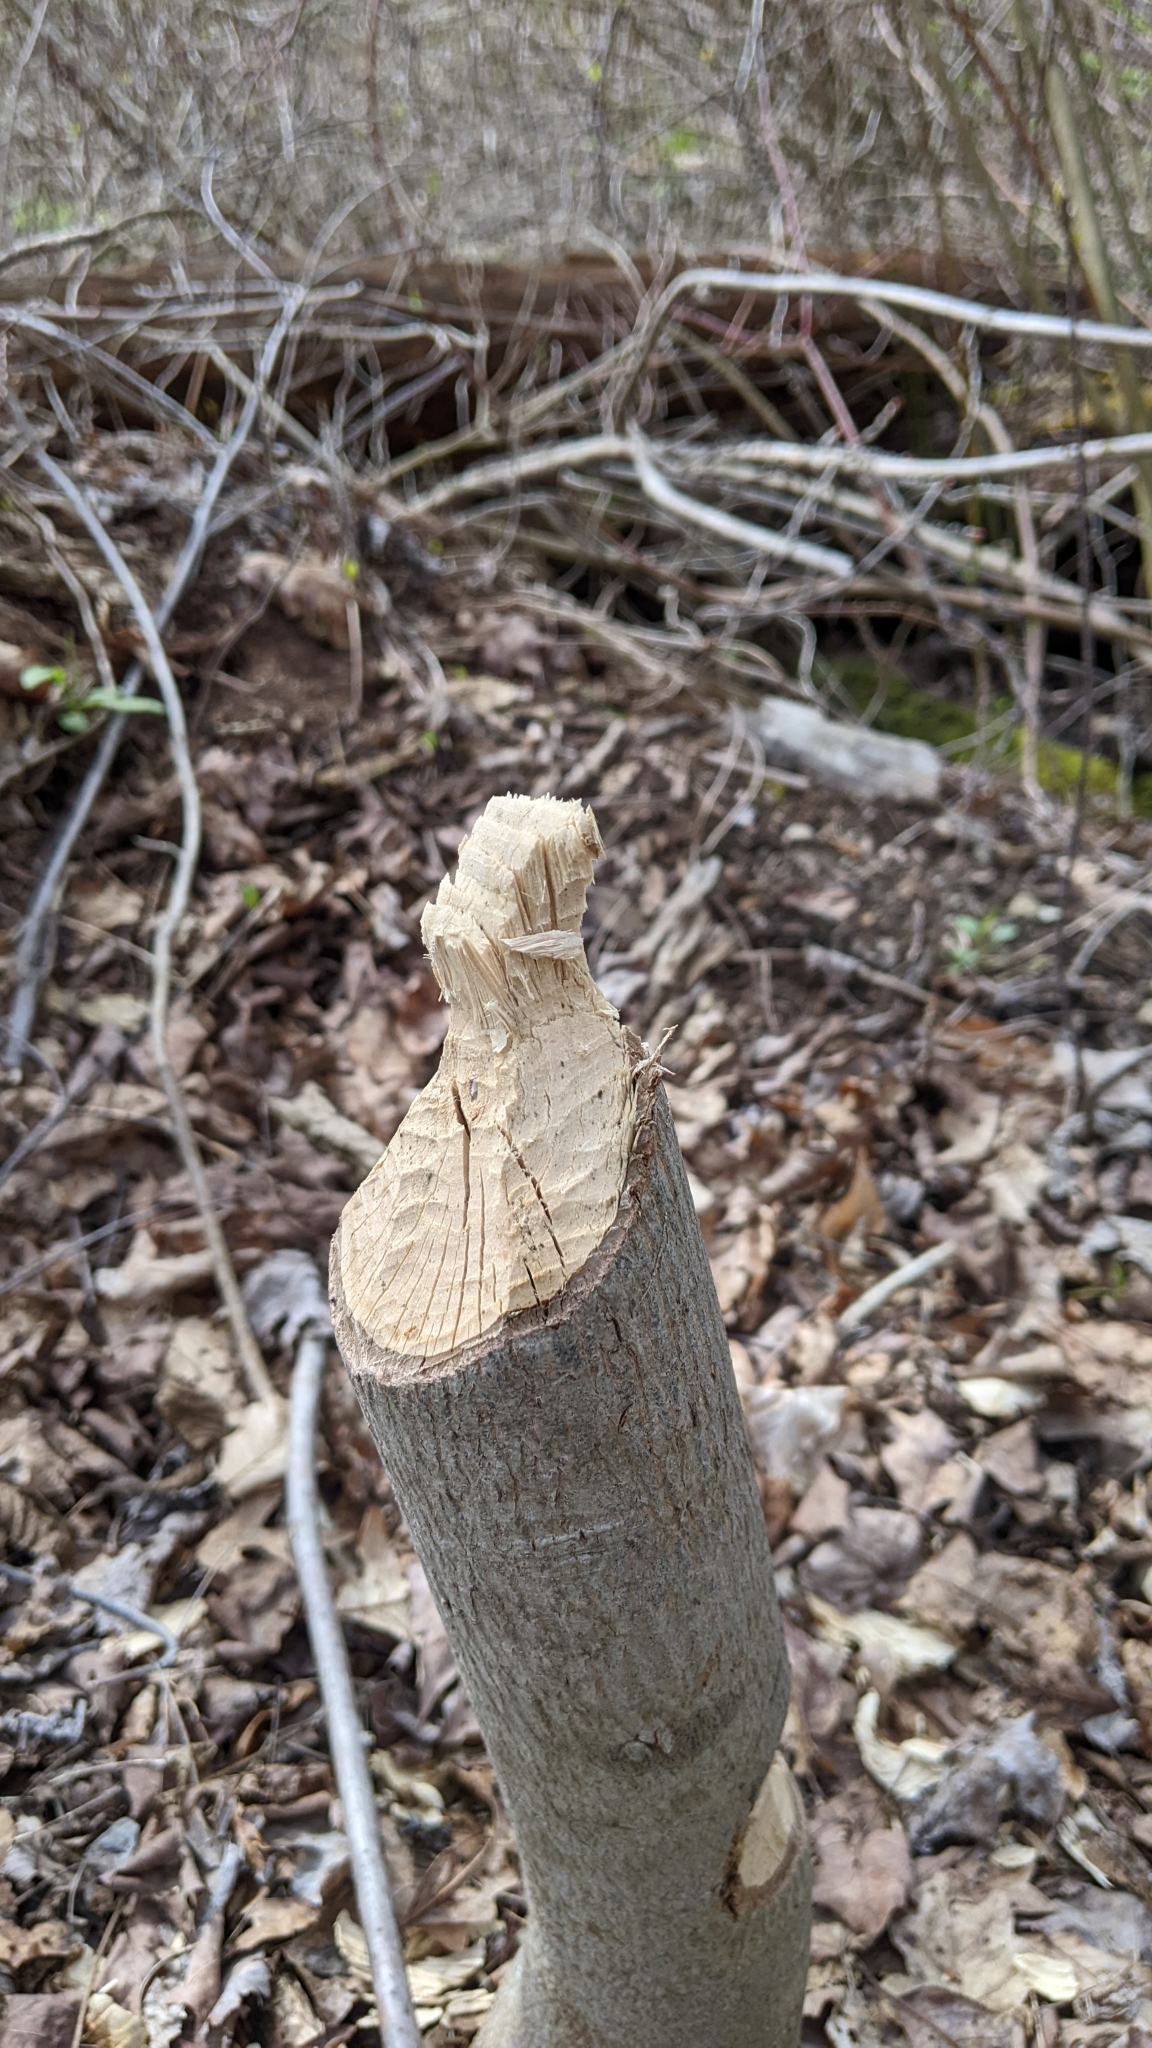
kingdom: Animalia
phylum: Chordata
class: Mammalia
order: Rodentia
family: Castoridae
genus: Castor
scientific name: Castor canadensis
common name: American beaver
